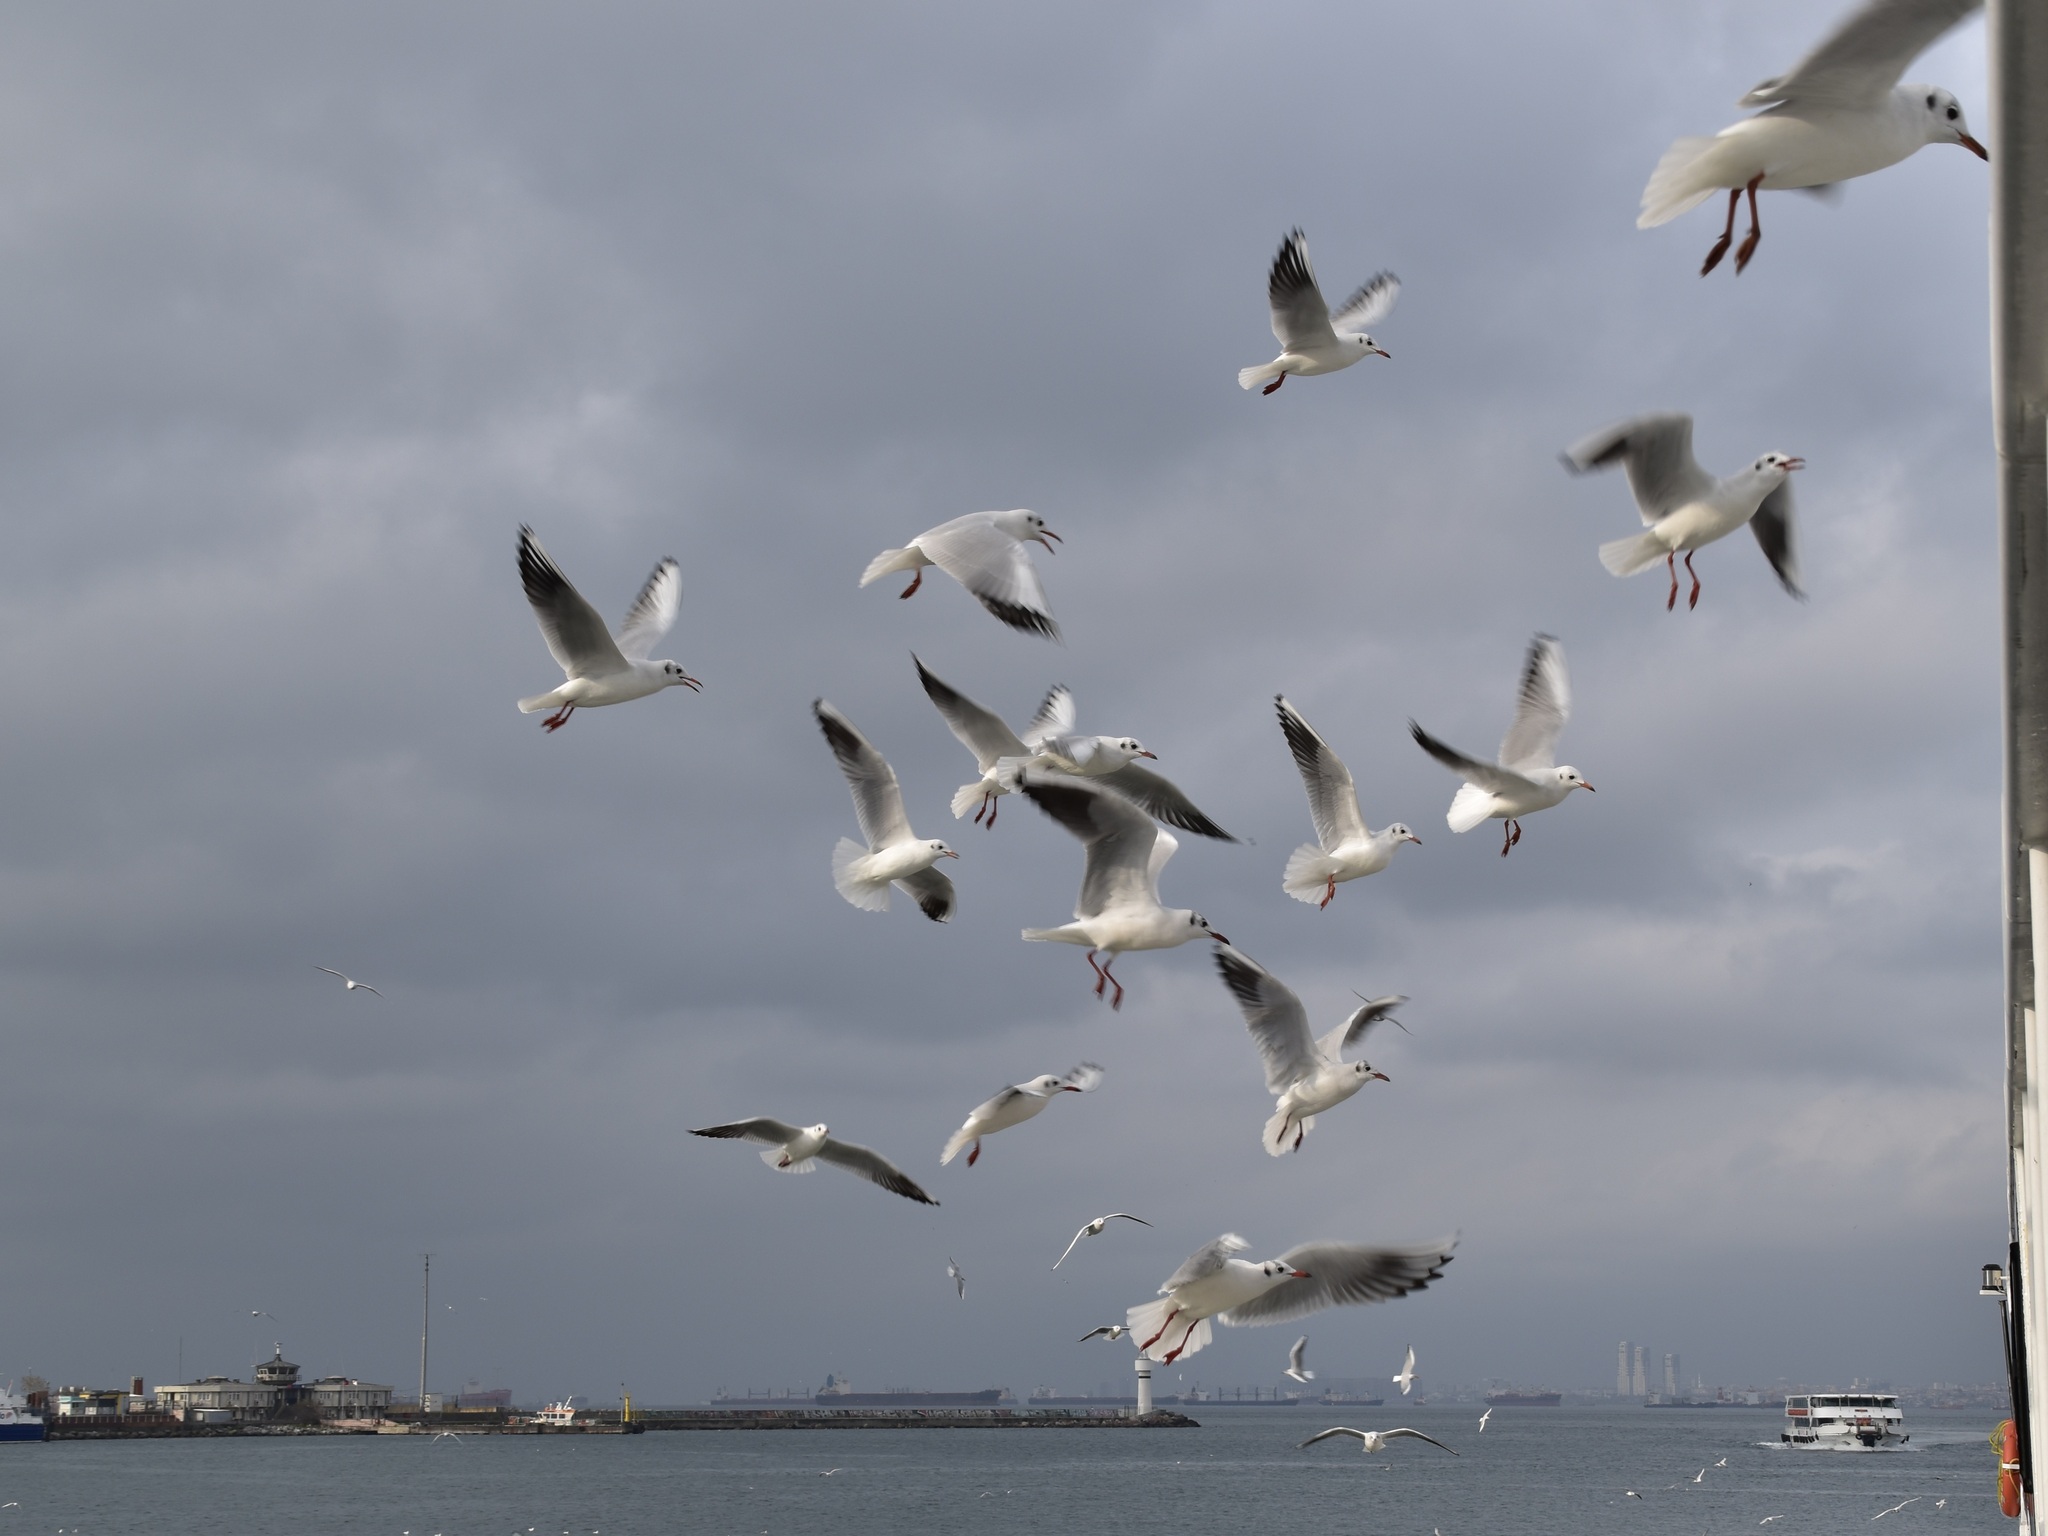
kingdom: Animalia
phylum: Chordata
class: Aves
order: Charadriiformes
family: Laridae
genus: Chroicocephalus
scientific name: Chroicocephalus ridibundus
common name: Black-headed gull
